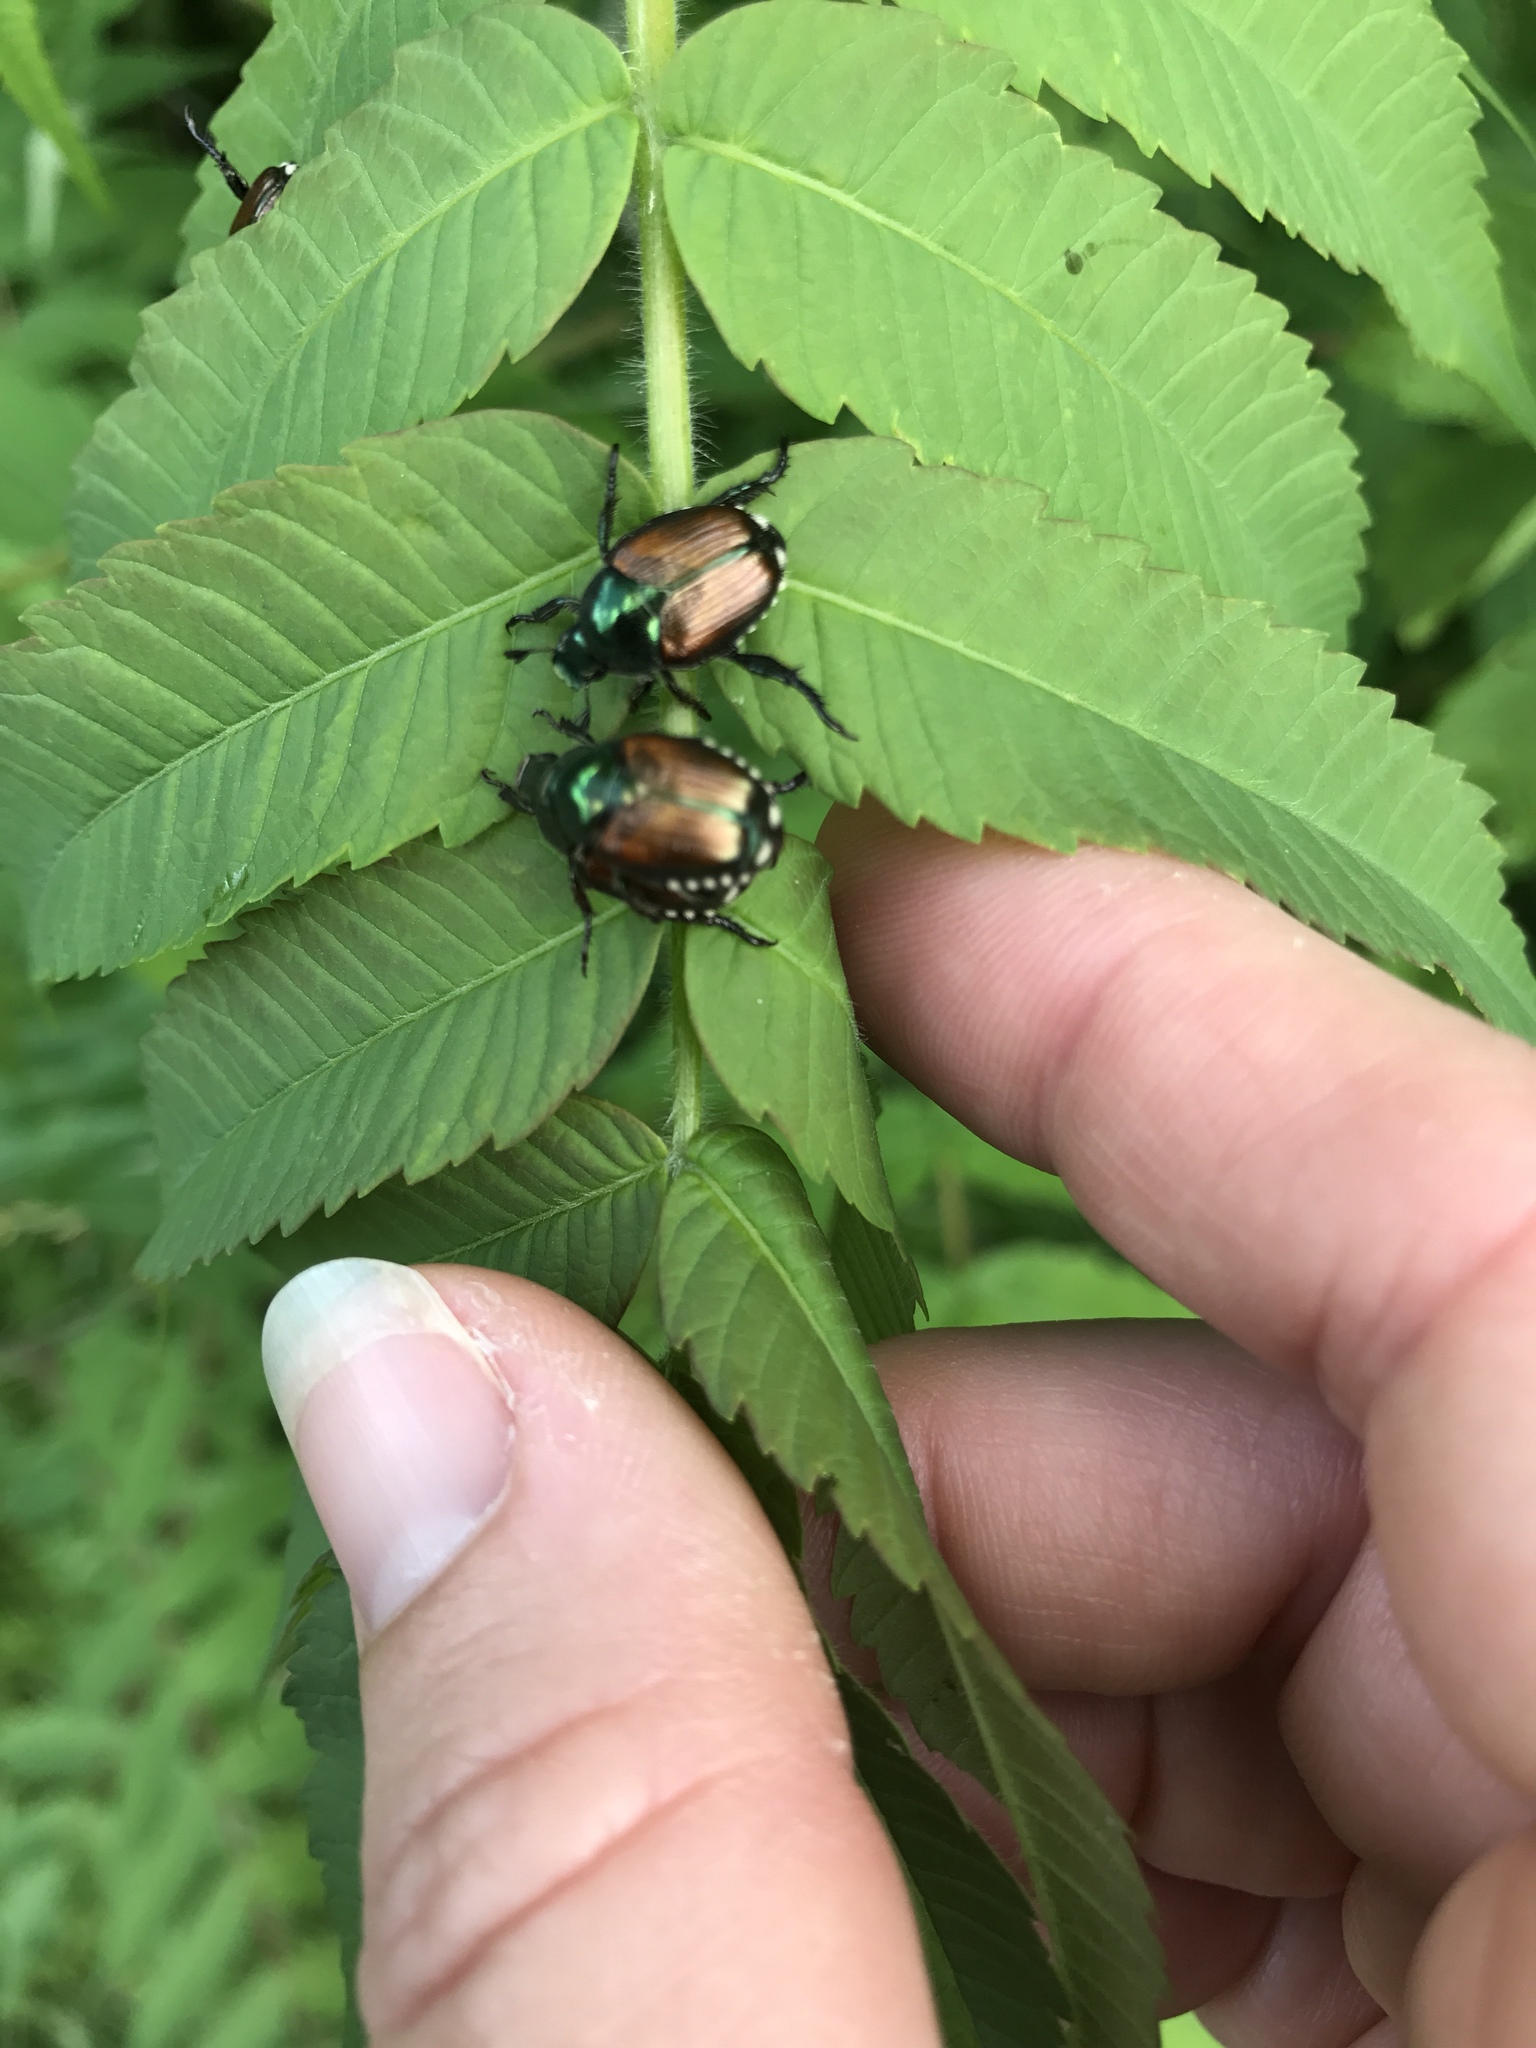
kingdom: Animalia
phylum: Arthropoda
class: Insecta
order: Coleoptera
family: Scarabaeidae
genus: Popillia
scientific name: Popillia japonica
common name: Japanese beetle
